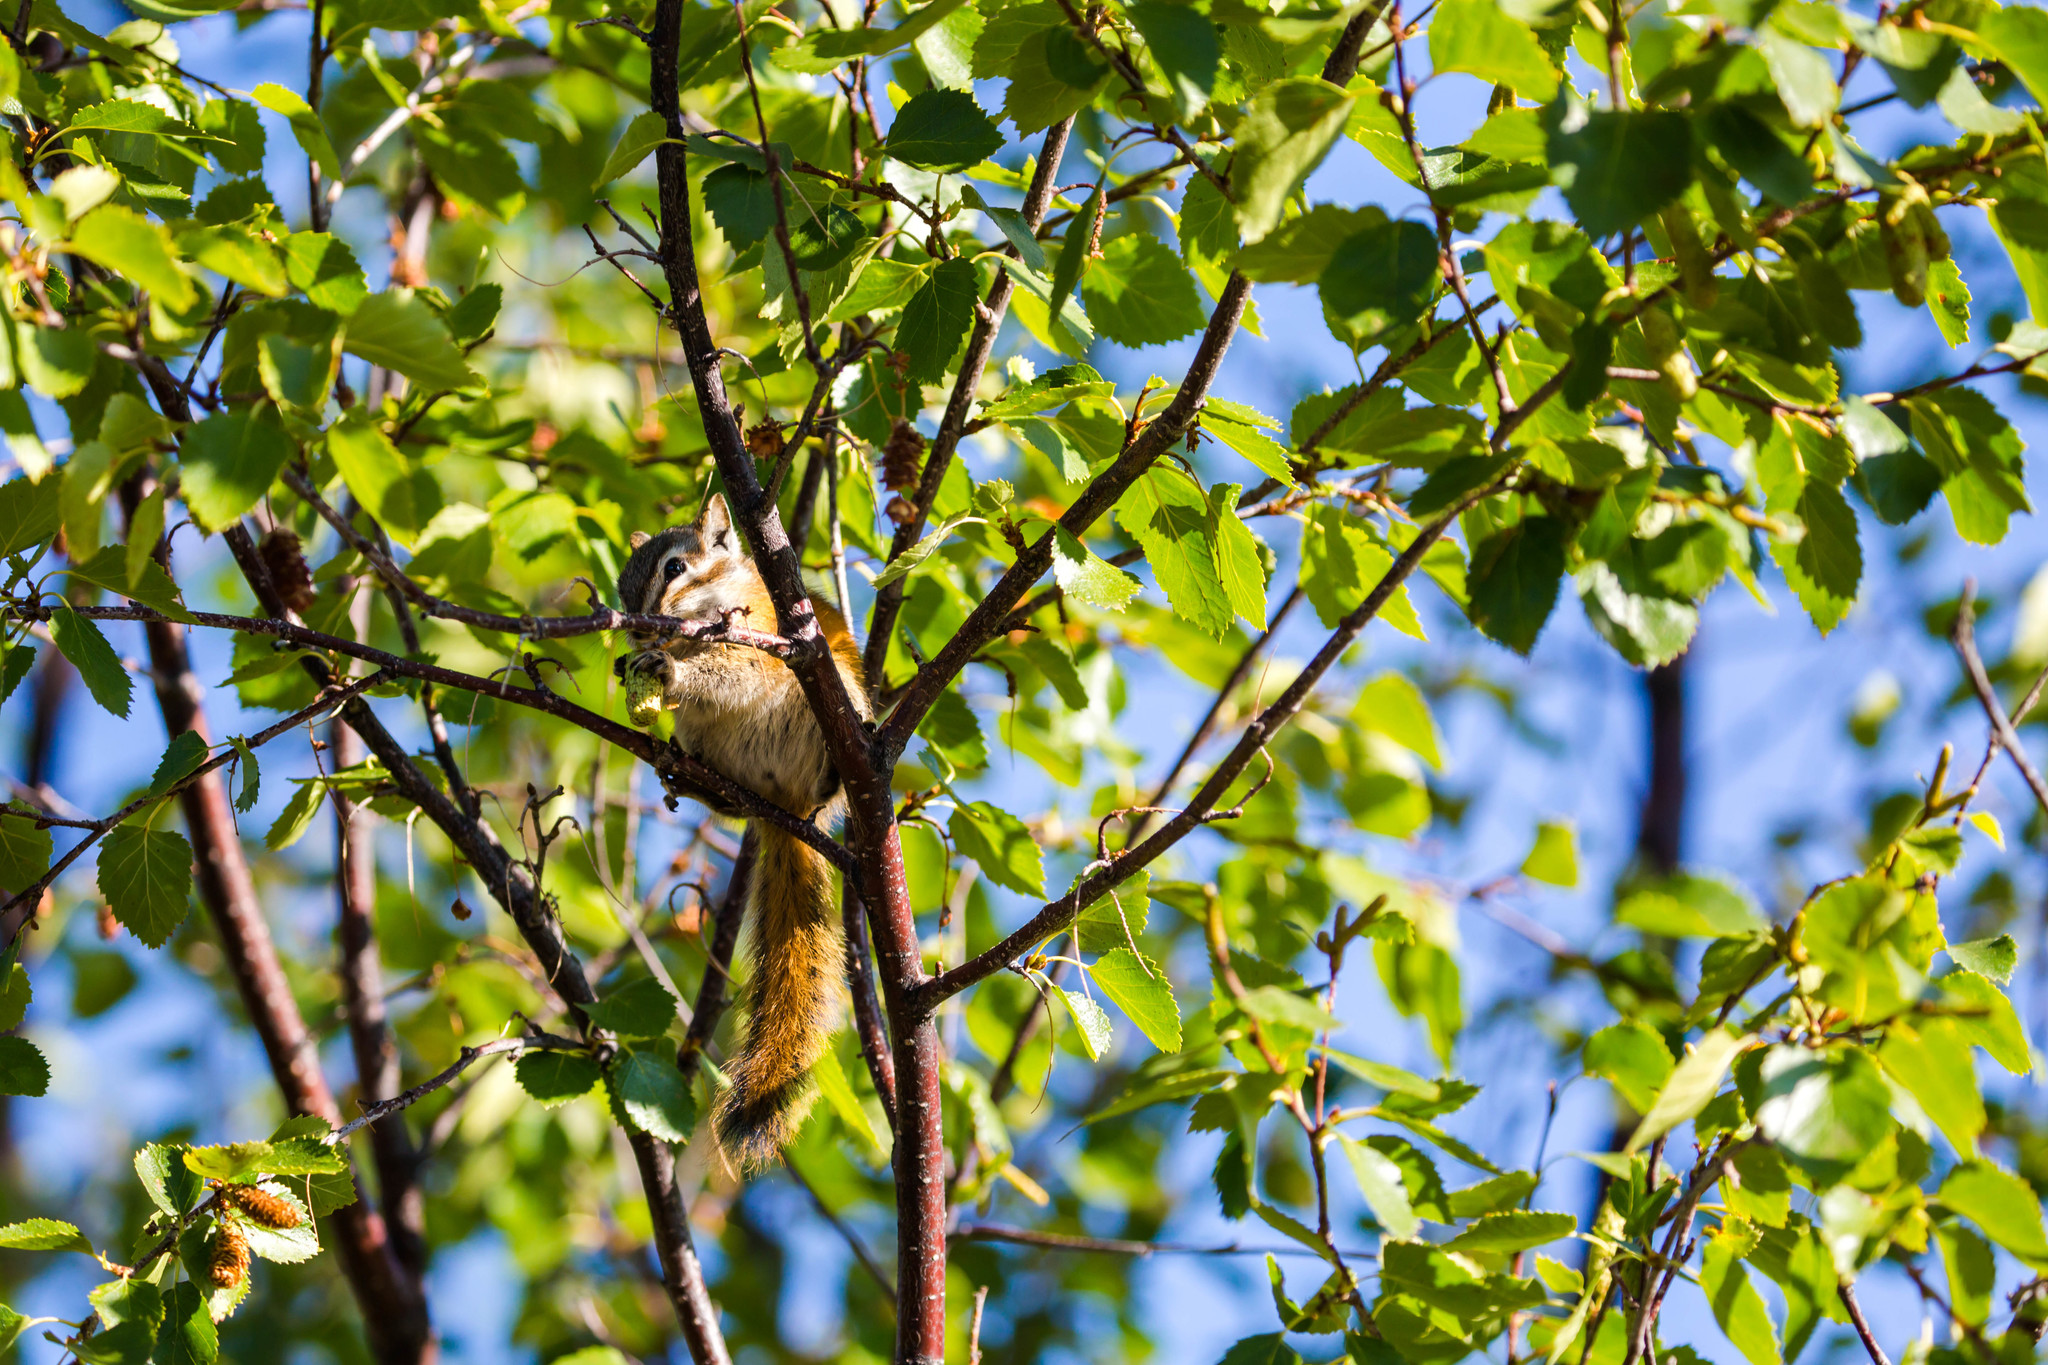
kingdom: Animalia
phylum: Chordata
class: Mammalia
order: Rodentia
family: Sciuridae
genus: Tamias
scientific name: Tamias minimus
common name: Least chipmunk
